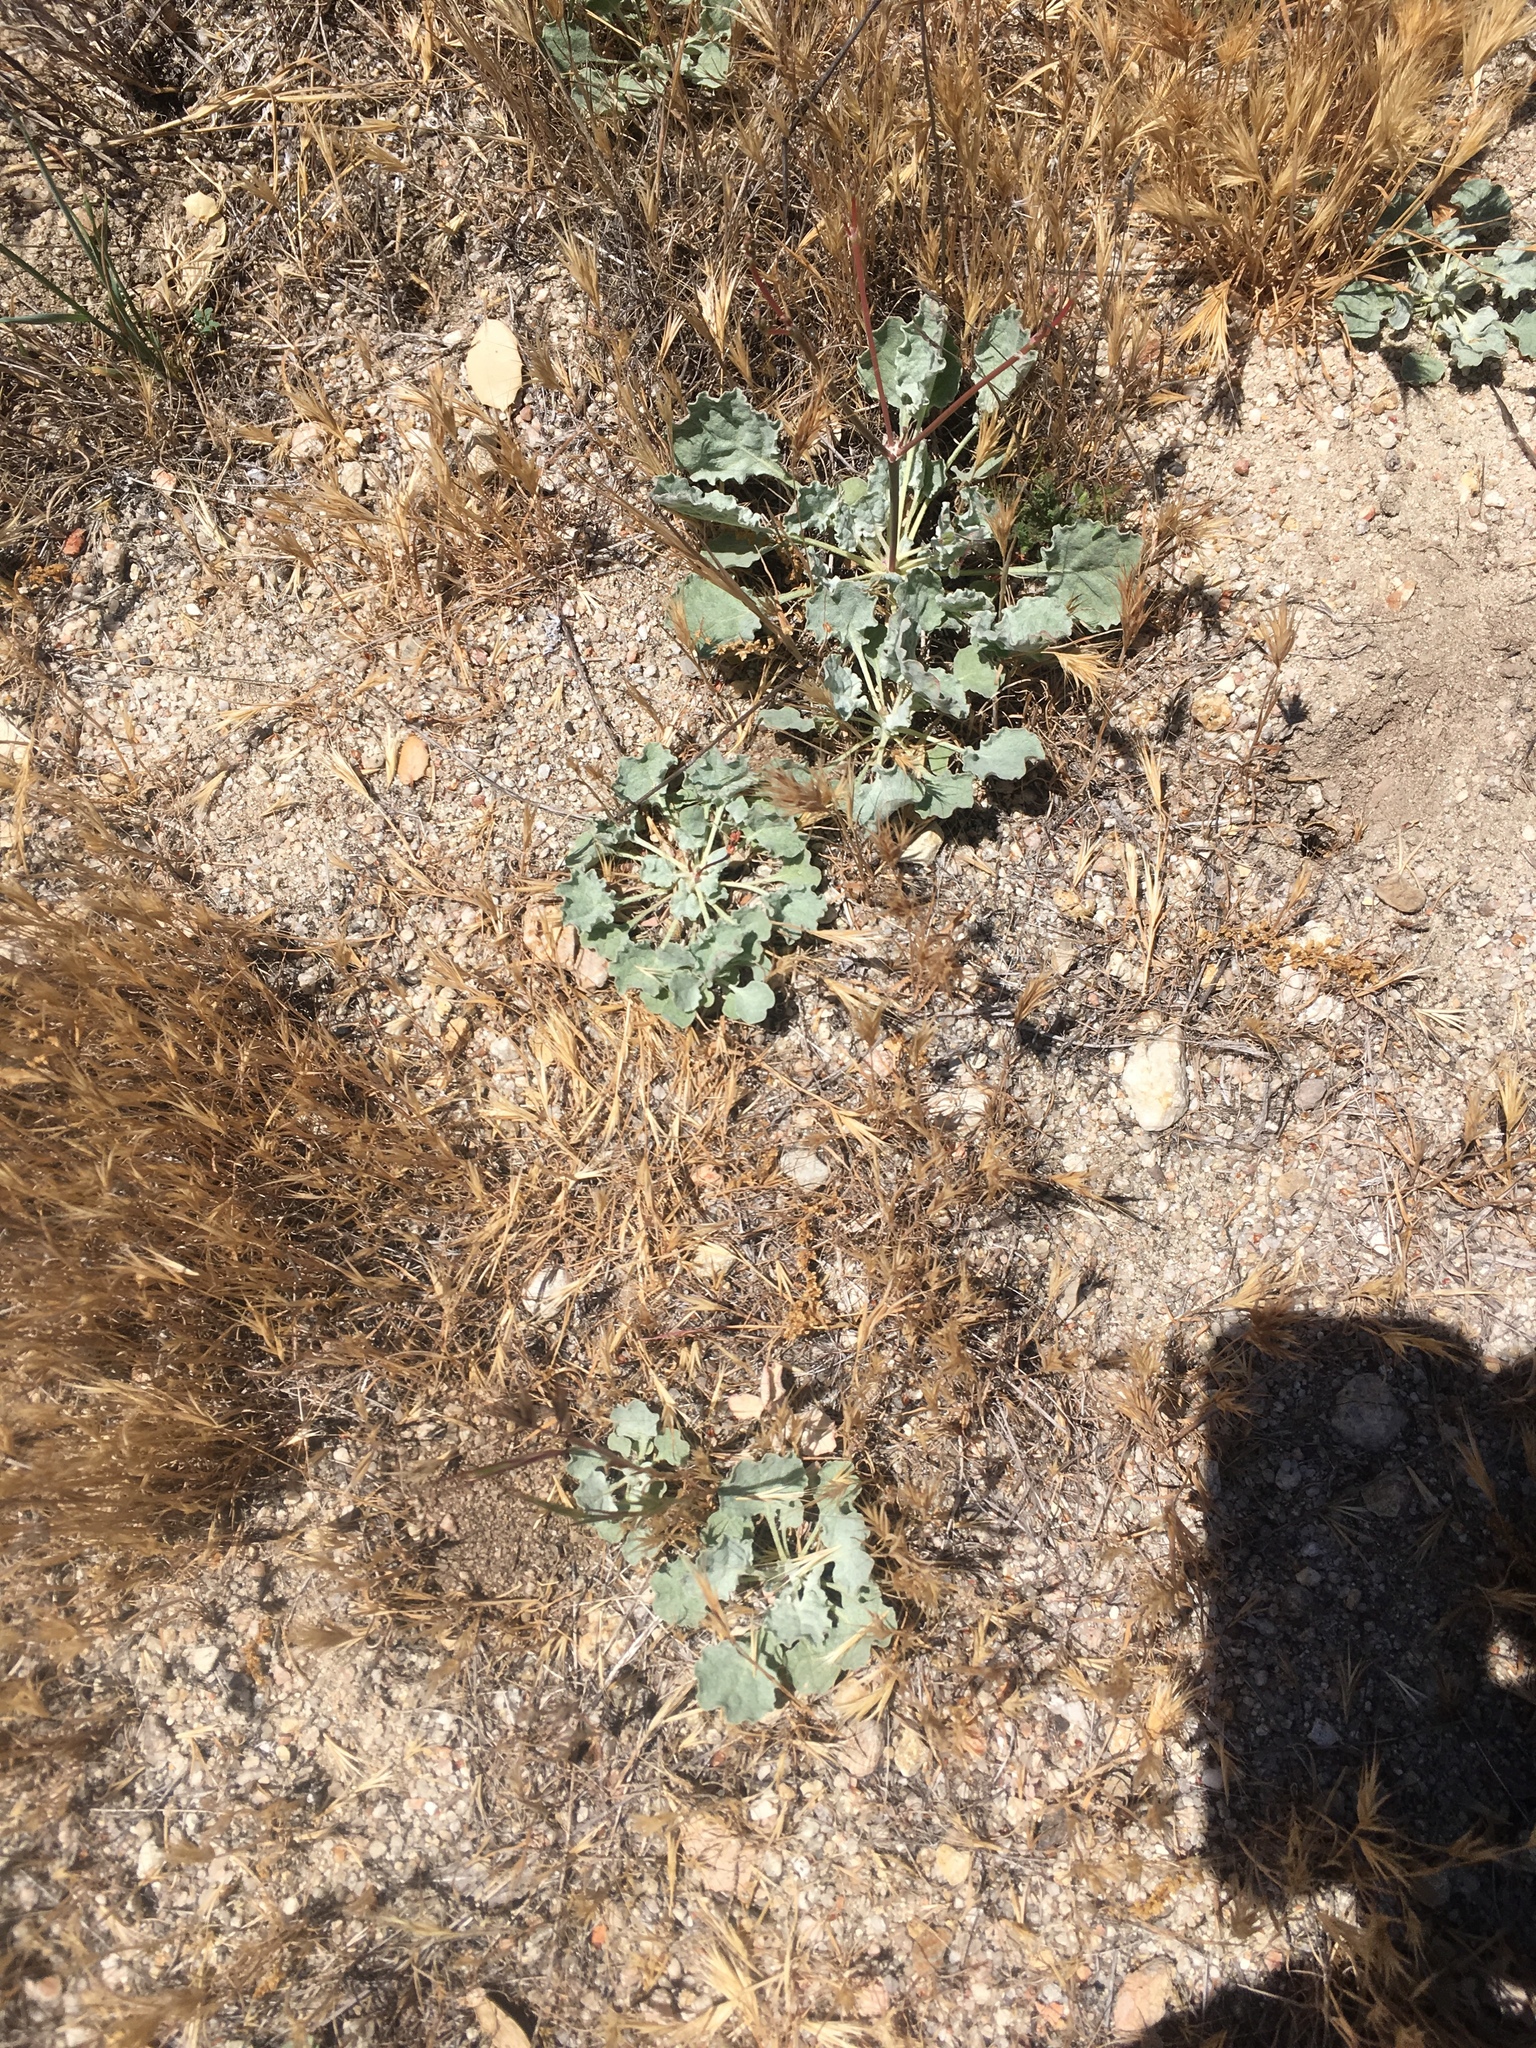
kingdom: Plantae
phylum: Tracheophyta
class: Magnoliopsida
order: Caryophyllales
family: Polygonaceae
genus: Eriogonum
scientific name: Eriogonum elegans
